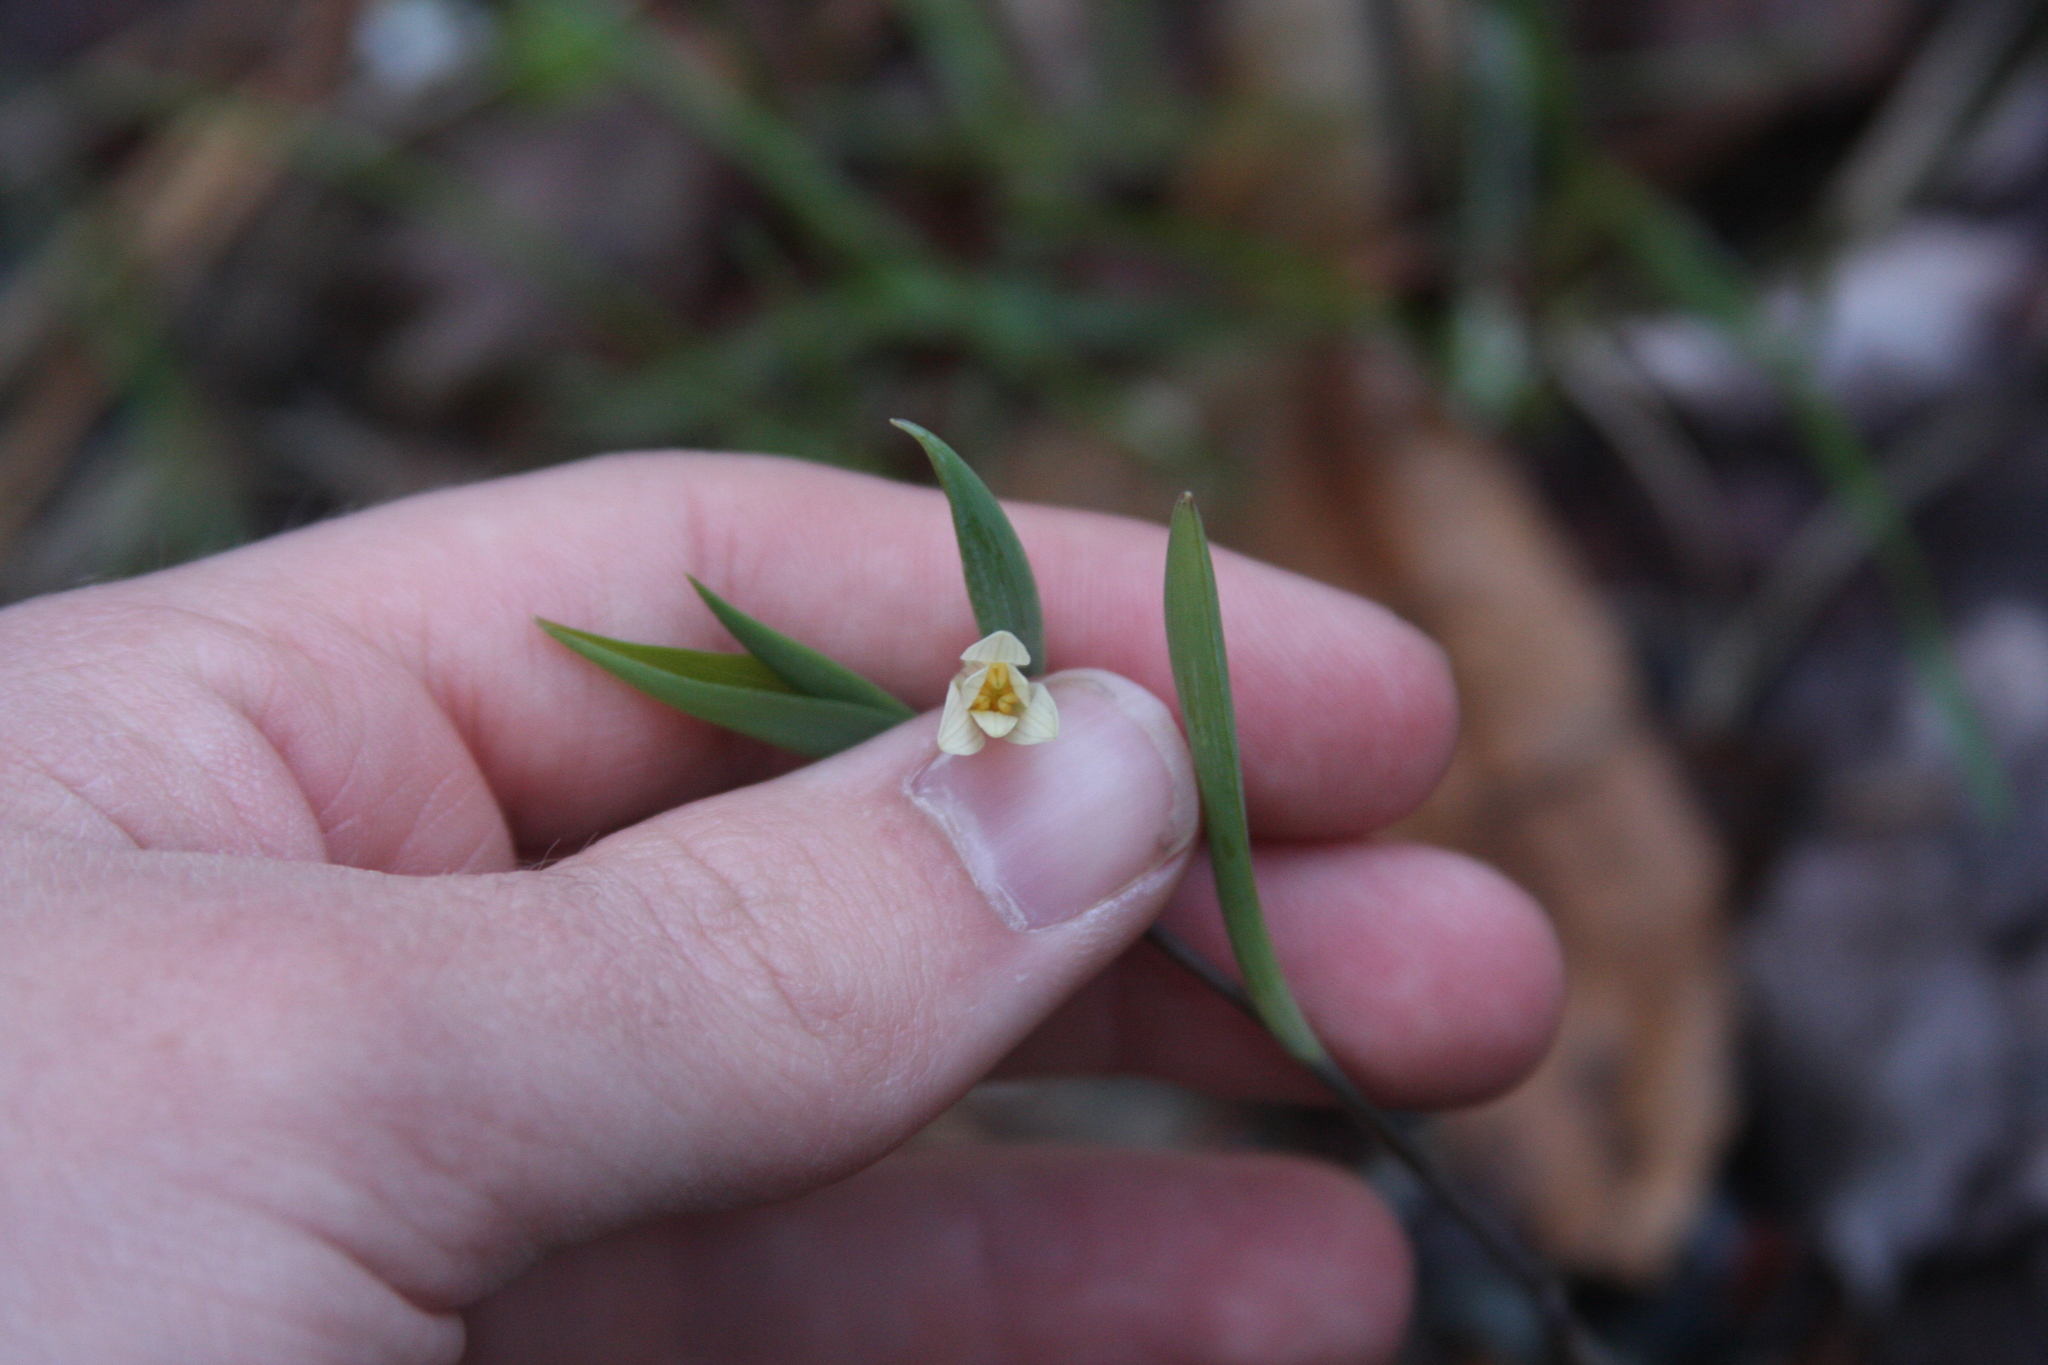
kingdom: Plantae
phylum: Tracheophyta
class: Liliopsida
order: Liliales
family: Colchicaceae
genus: Uvularia
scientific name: Uvularia sessilifolia
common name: Straw-lily
